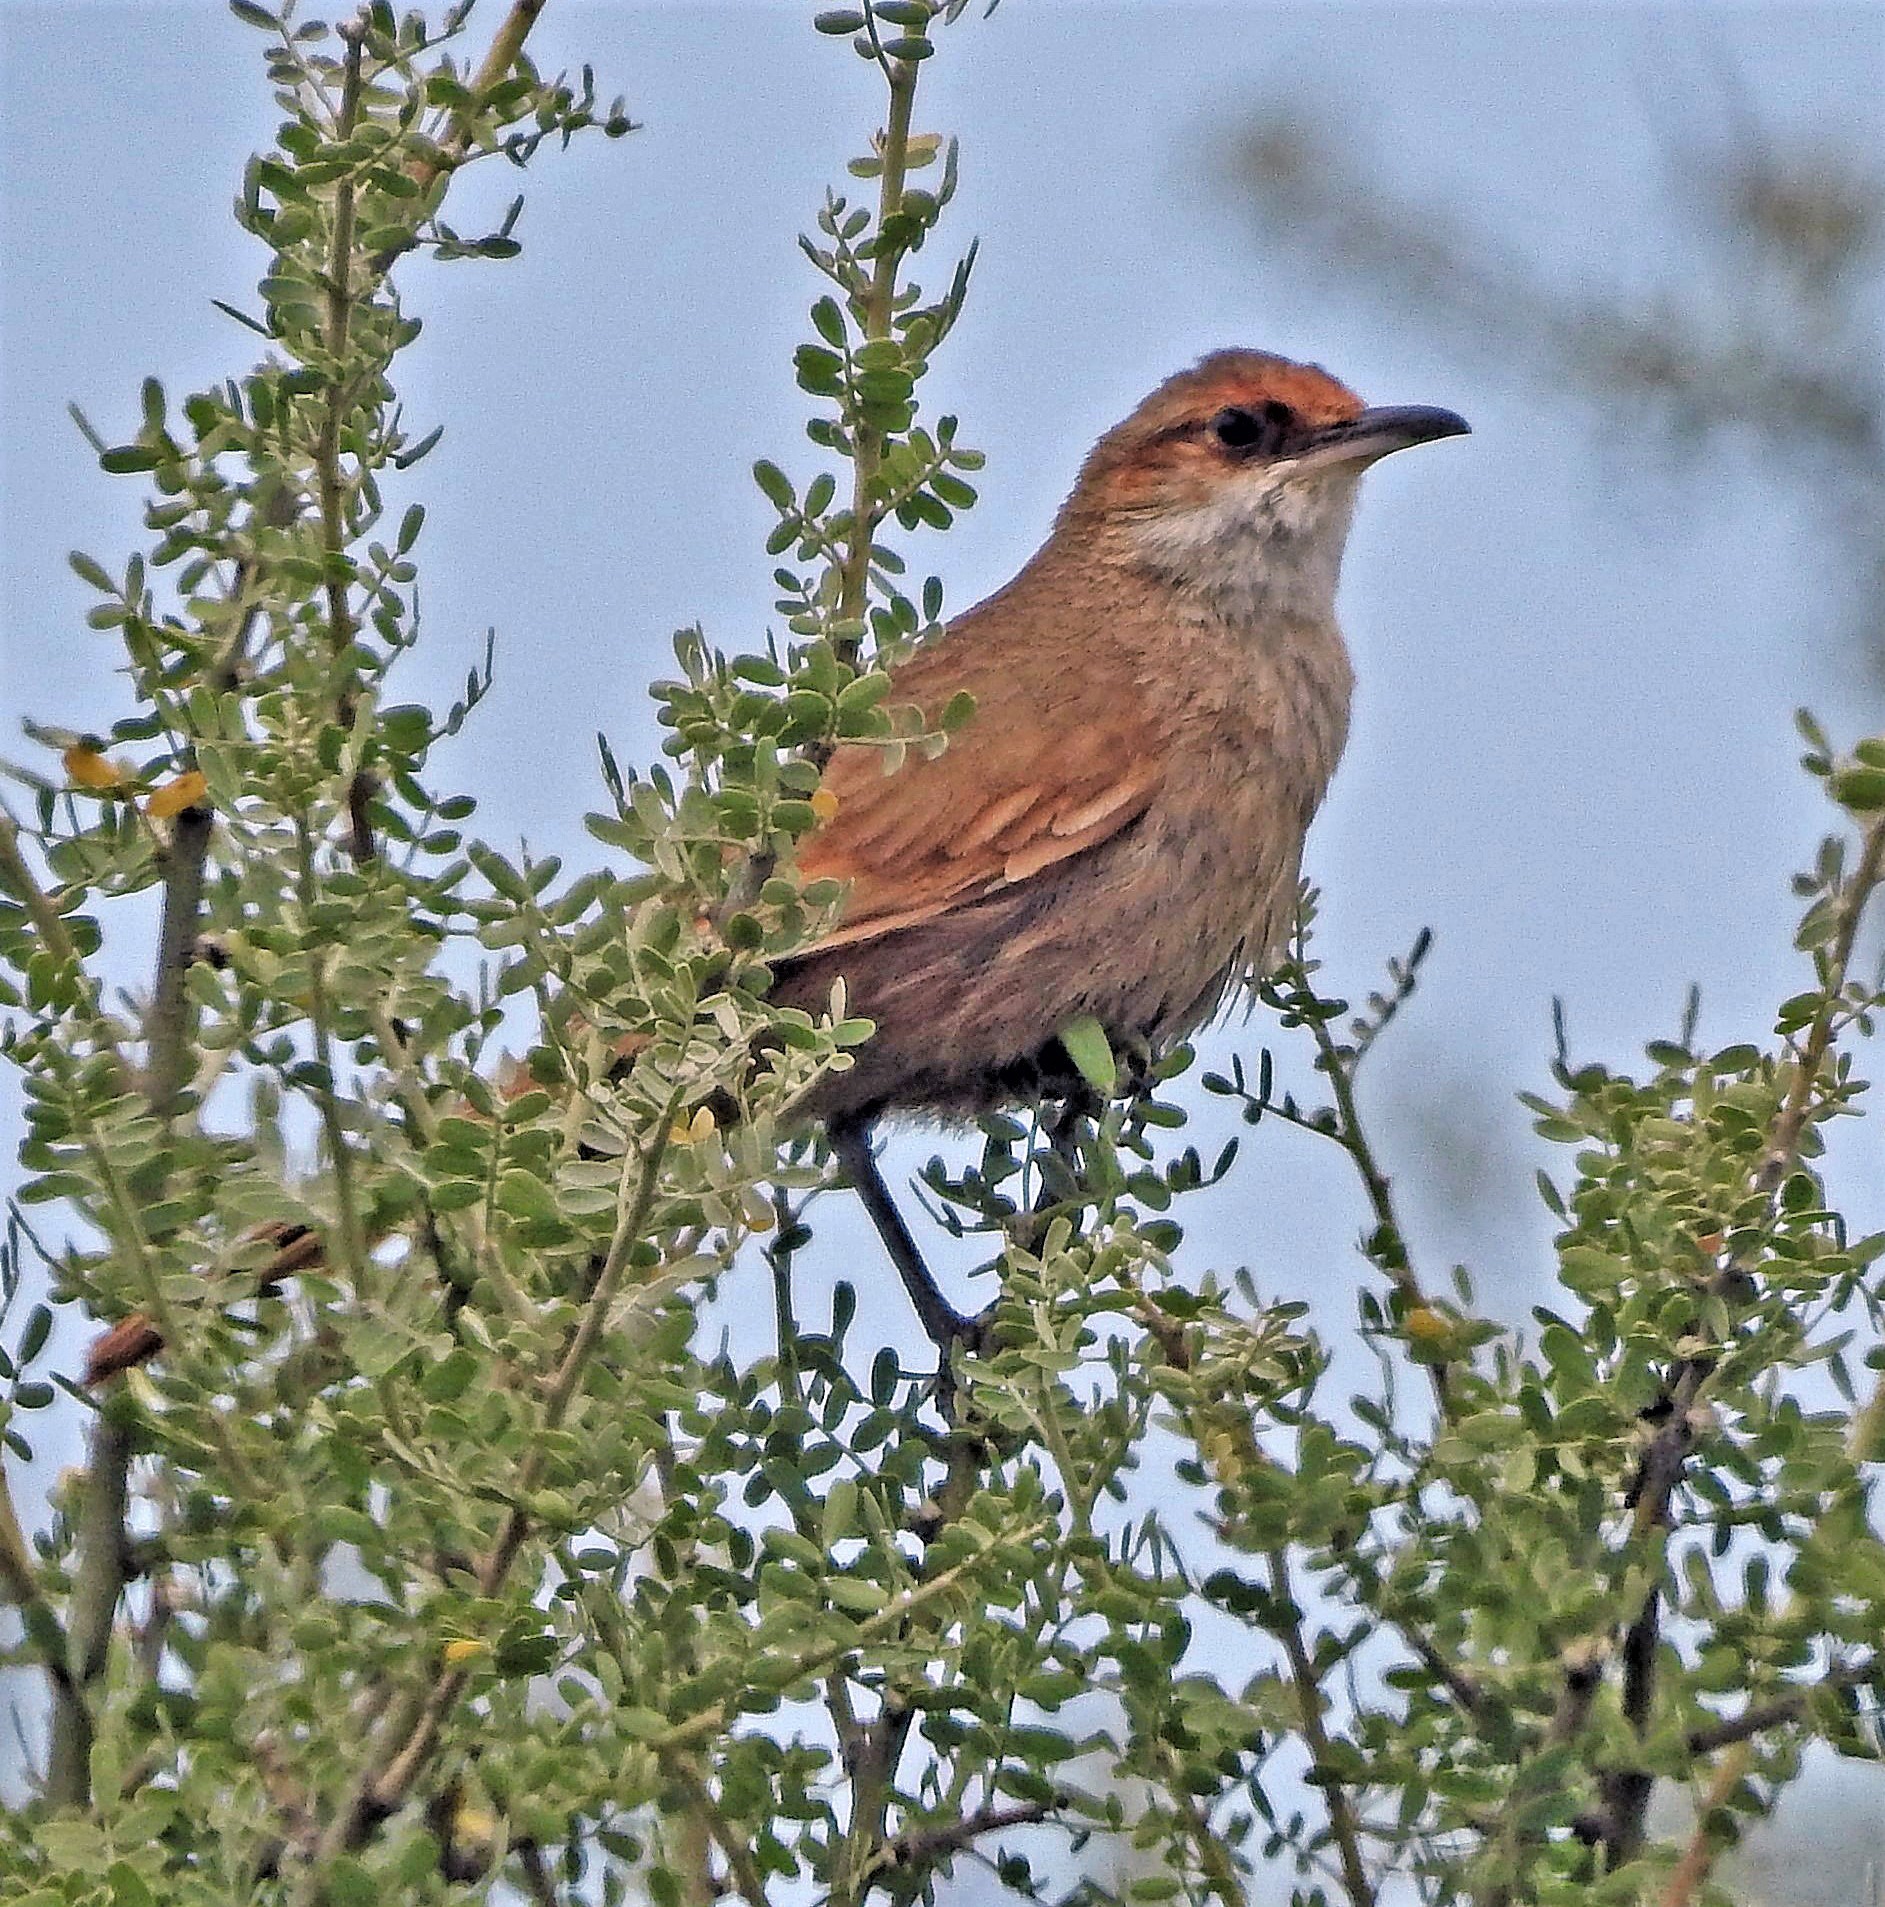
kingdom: Animalia
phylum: Chordata
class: Aves
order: Passeriformes
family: Furnariidae
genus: Upucerthia
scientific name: Upucerthia certhioides
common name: Chaco earthcreeper
